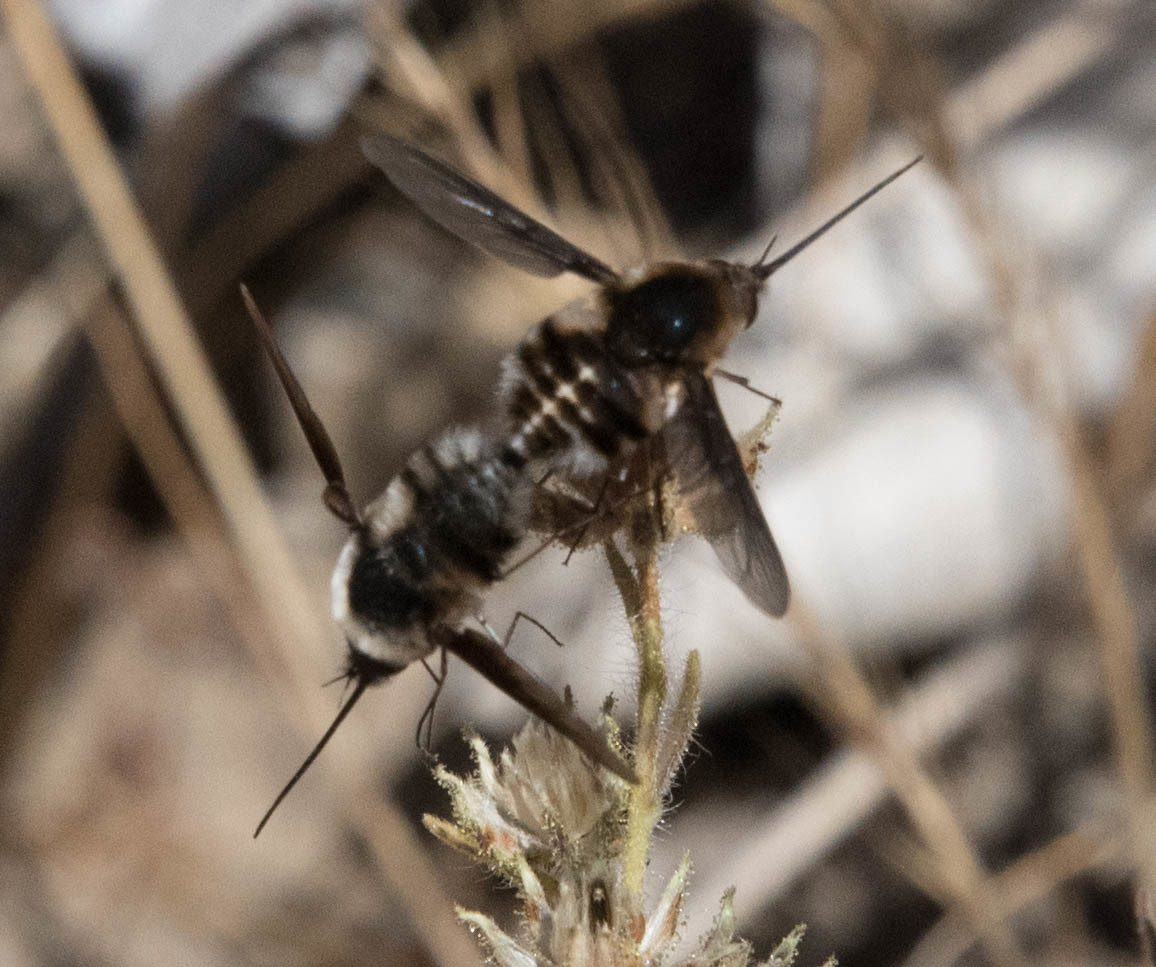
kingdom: Animalia
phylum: Arthropoda
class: Insecta
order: Diptera
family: Bombyliidae
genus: Bombylius
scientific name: Bombylius lancifer
